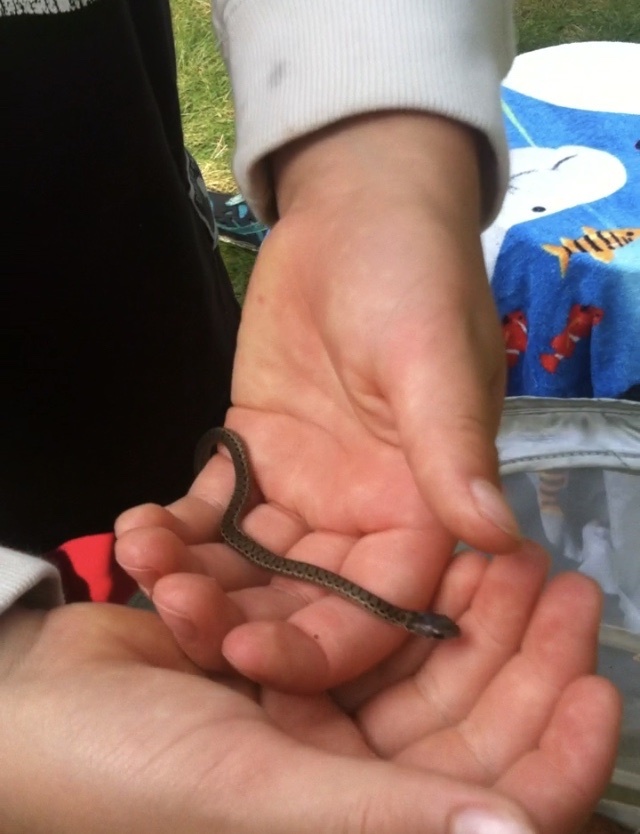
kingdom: Animalia
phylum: Chordata
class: Squamata
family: Colubridae
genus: Thamnophis
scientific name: Thamnophis sirtalis
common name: Common garter snake
